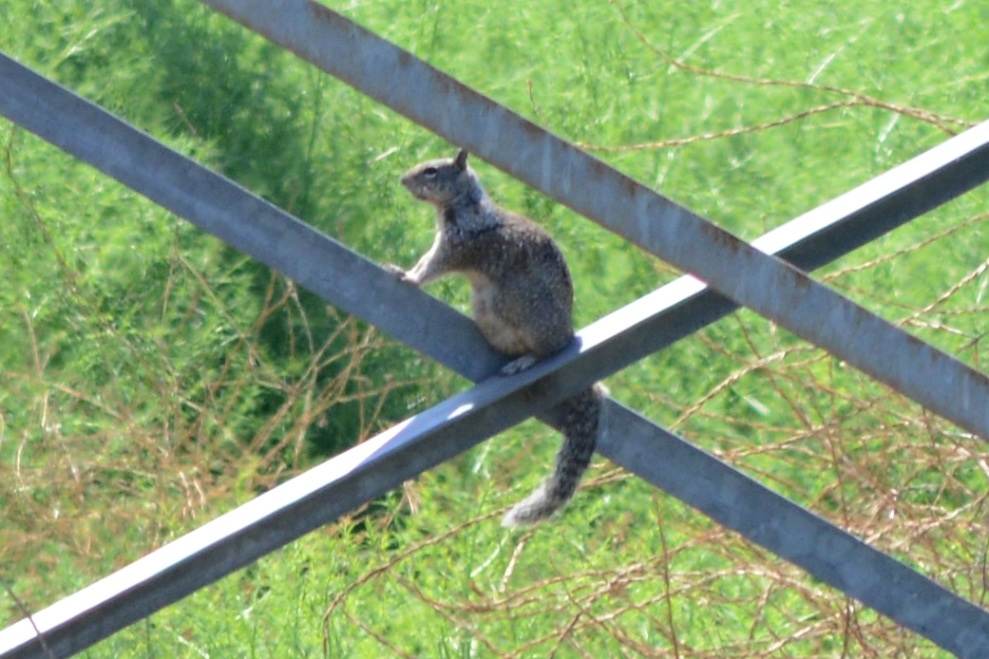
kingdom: Animalia
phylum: Chordata
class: Mammalia
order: Rodentia
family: Sciuridae
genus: Otospermophilus
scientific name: Otospermophilus beecheyi
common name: California ground squirrel
